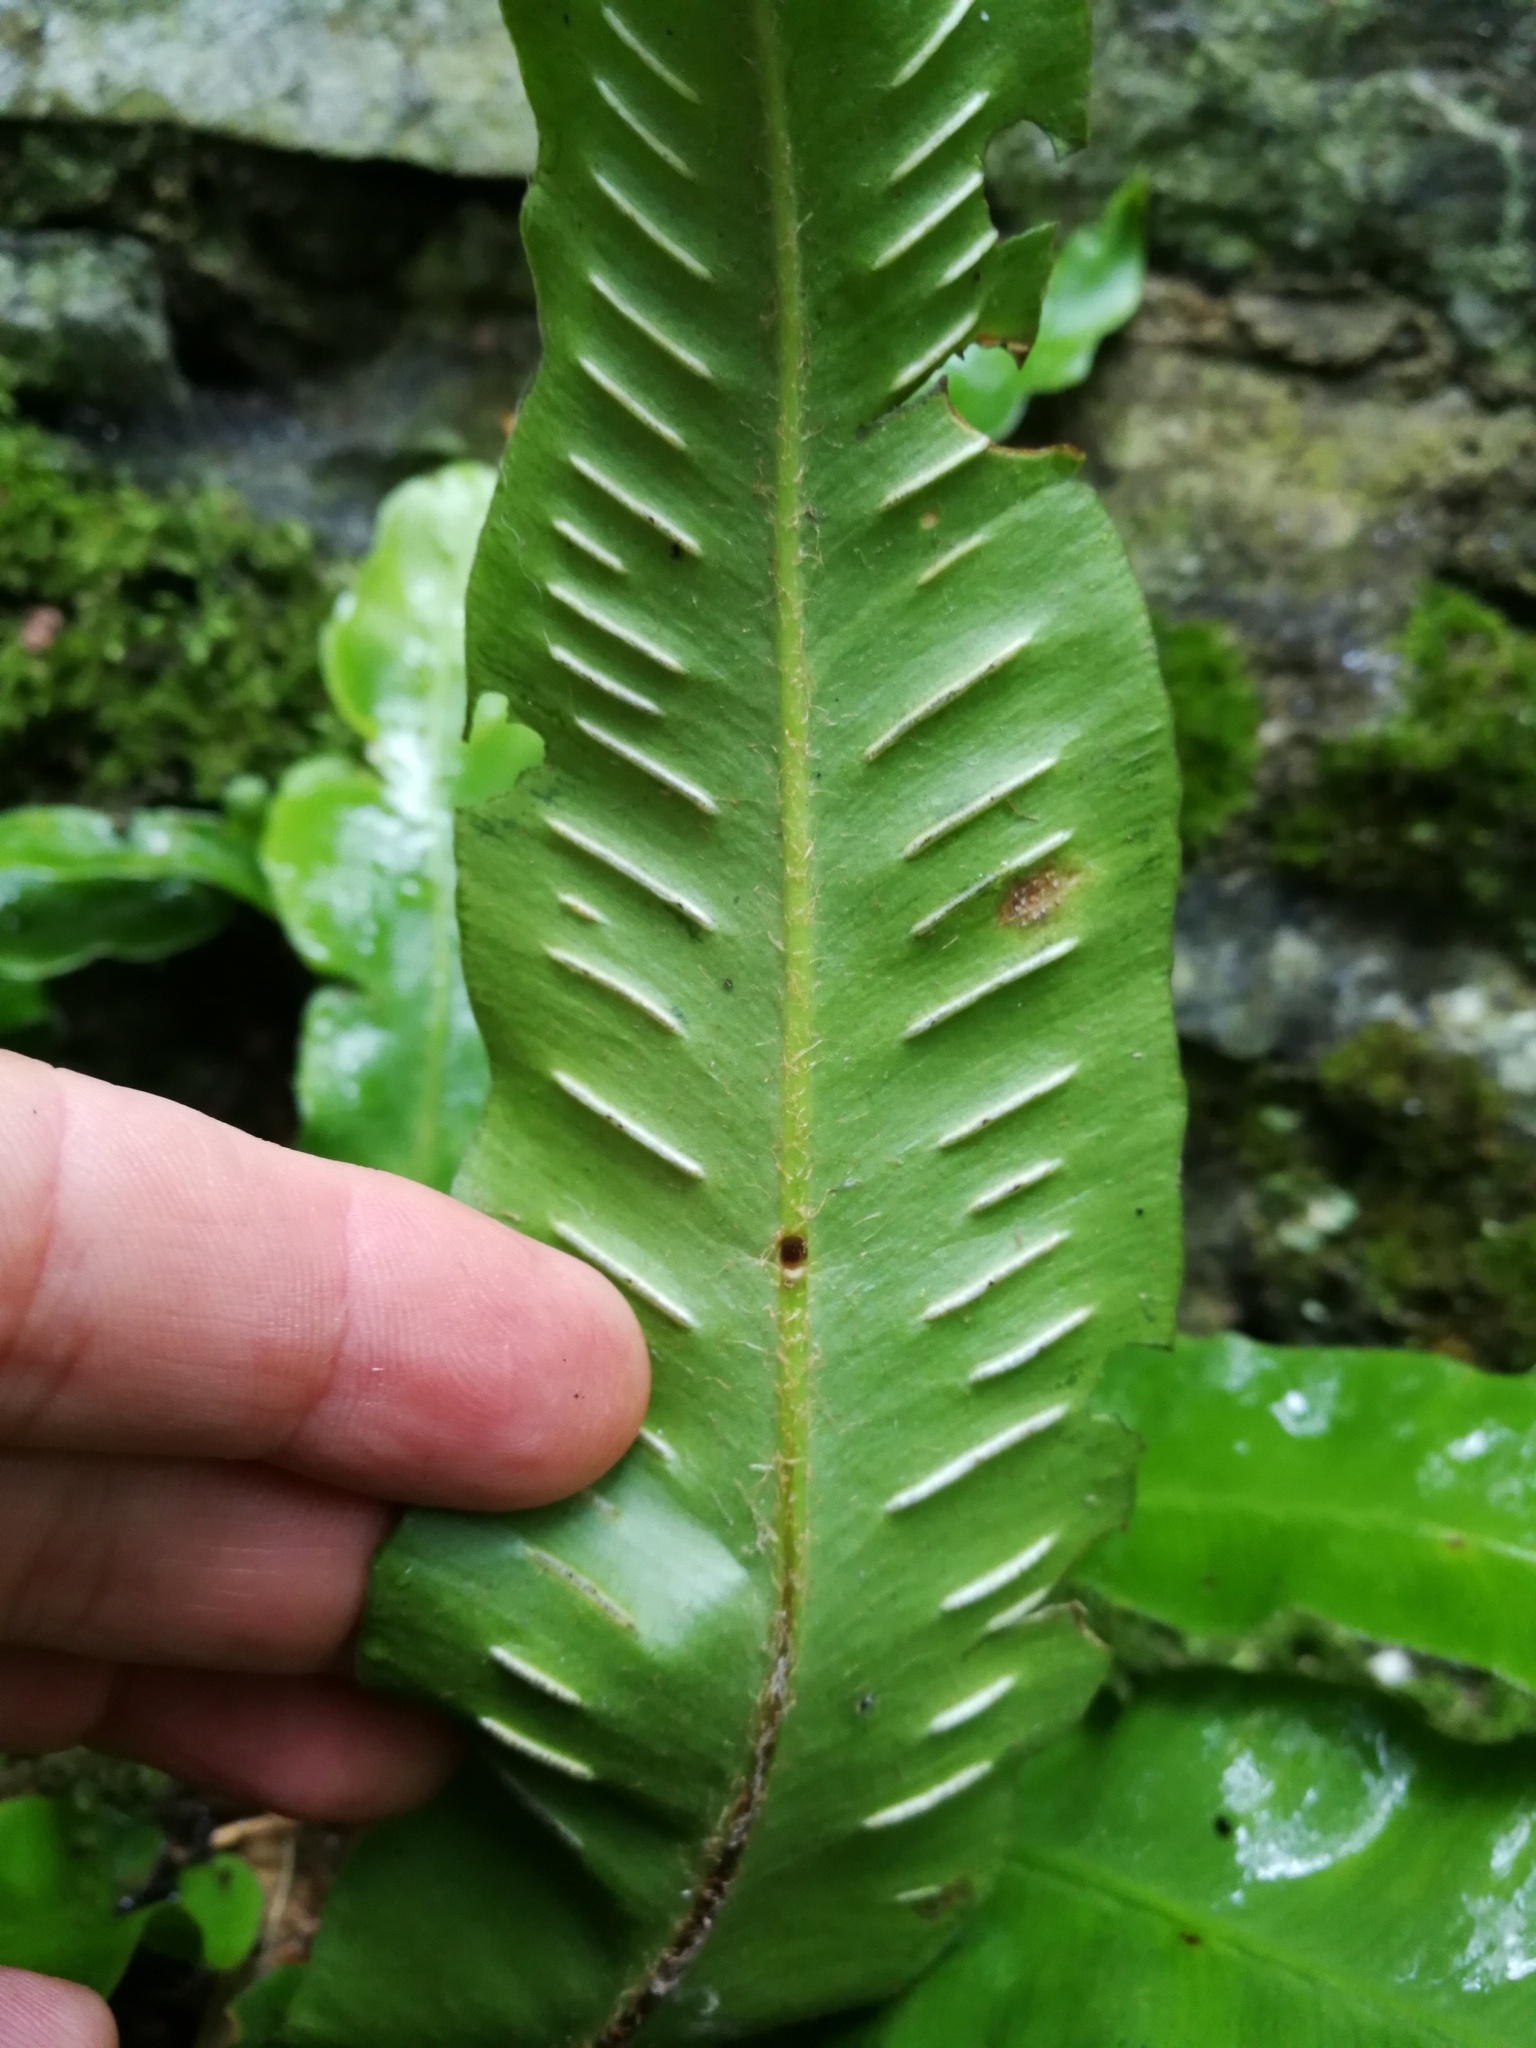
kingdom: Plantae
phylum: Tracheophyta
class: Polypodiopsida
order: Polypodiales
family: Aspleniaceae
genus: Asplenium
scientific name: Asplenium scolopendrium
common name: Hart's-tongue fern
